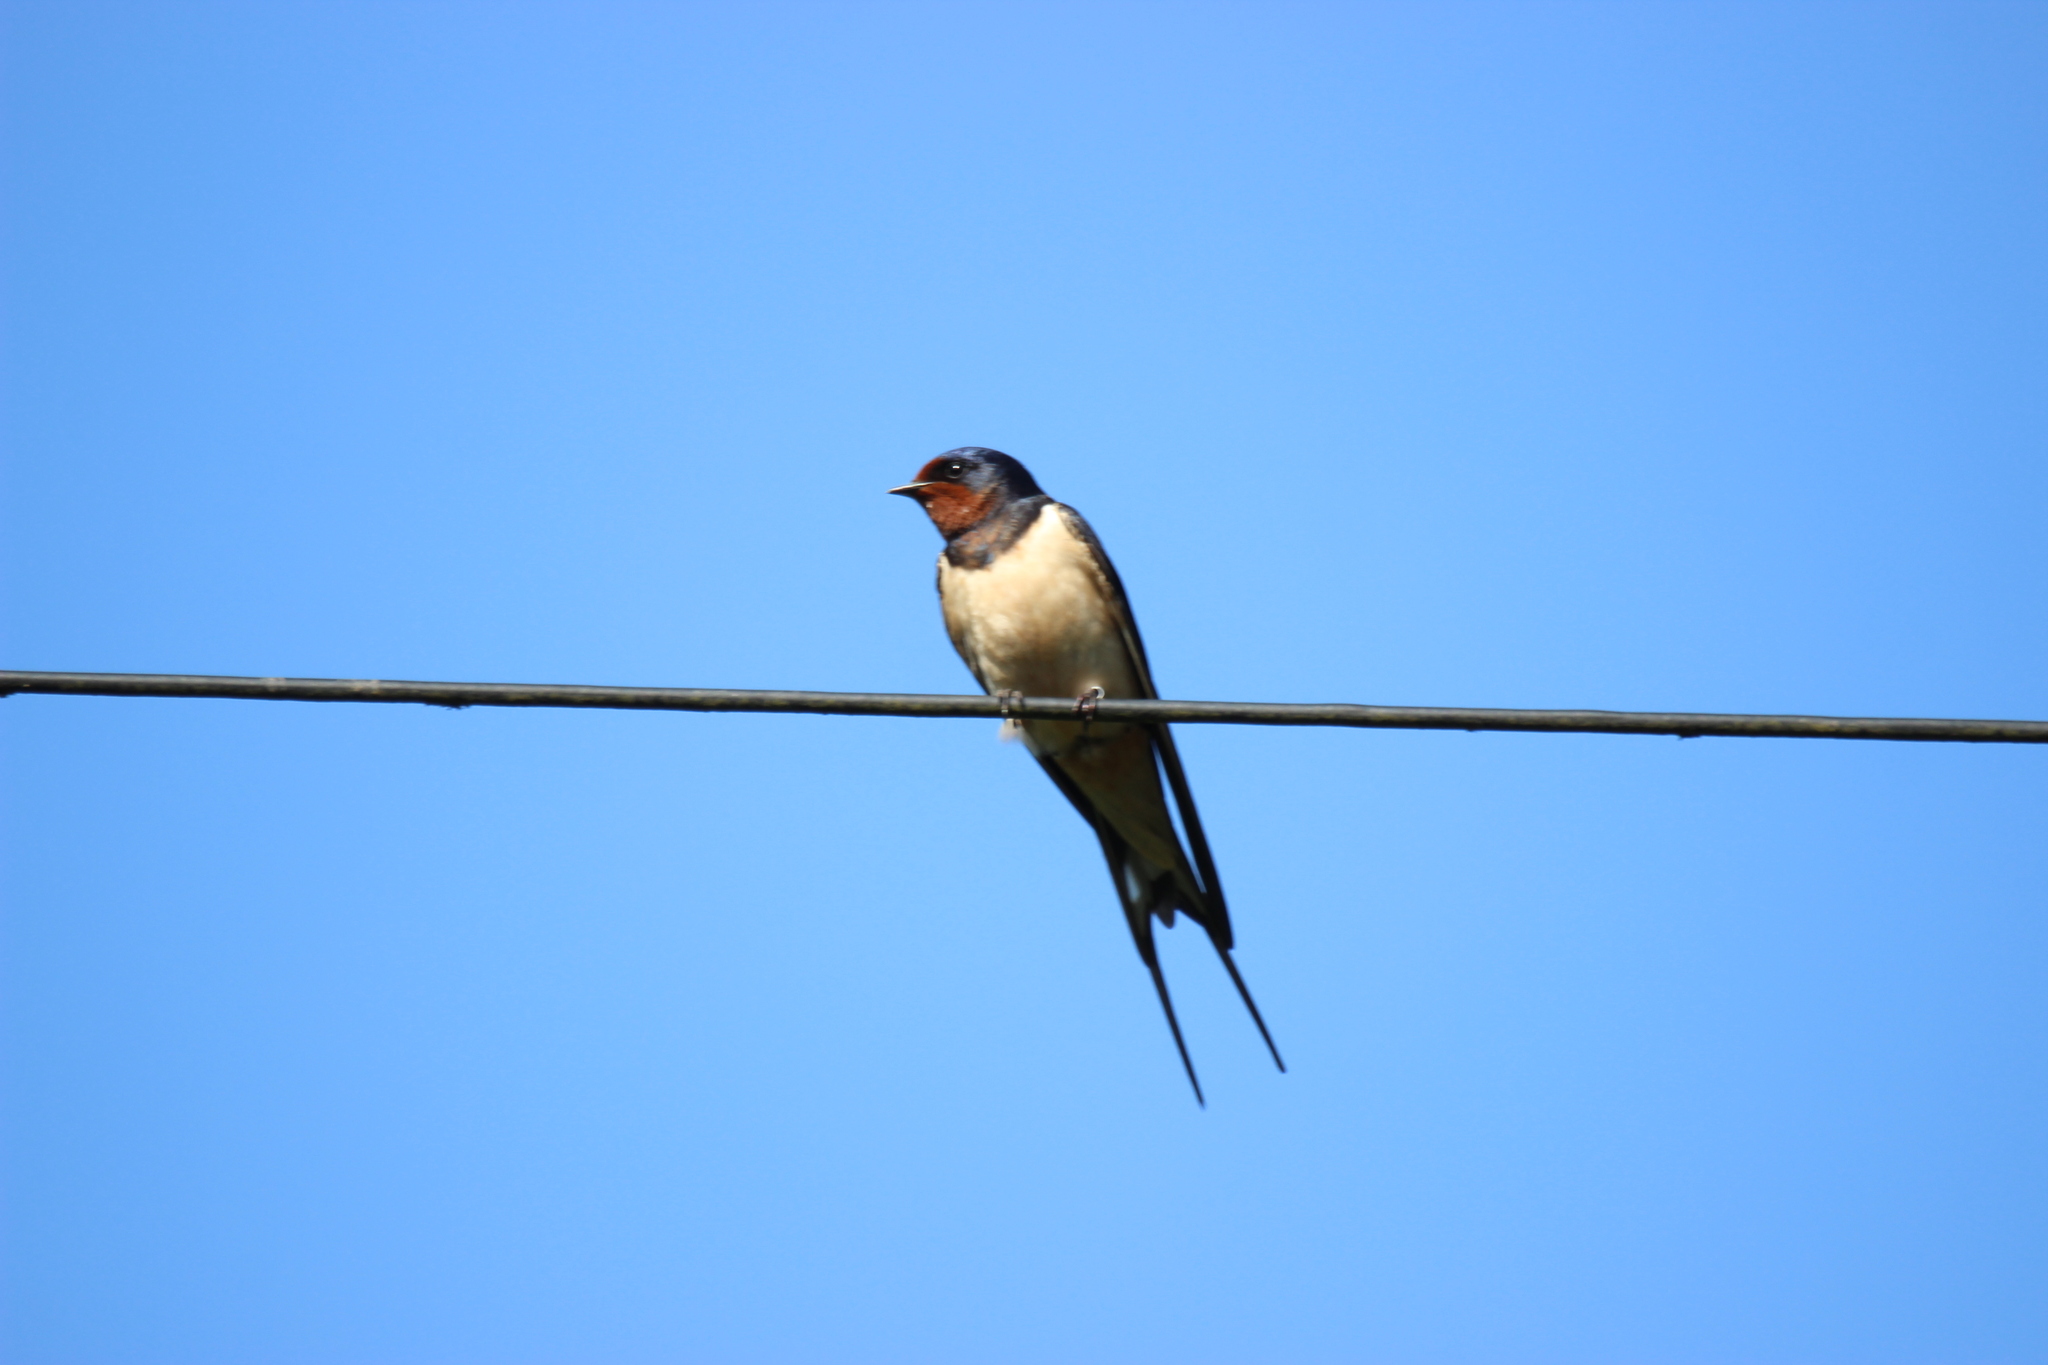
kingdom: Animalia
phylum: Chordata
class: Aves
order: Passeriformes
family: Hirundinidae
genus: Hirundo
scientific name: Hirundo rustica
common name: Barn swallow
